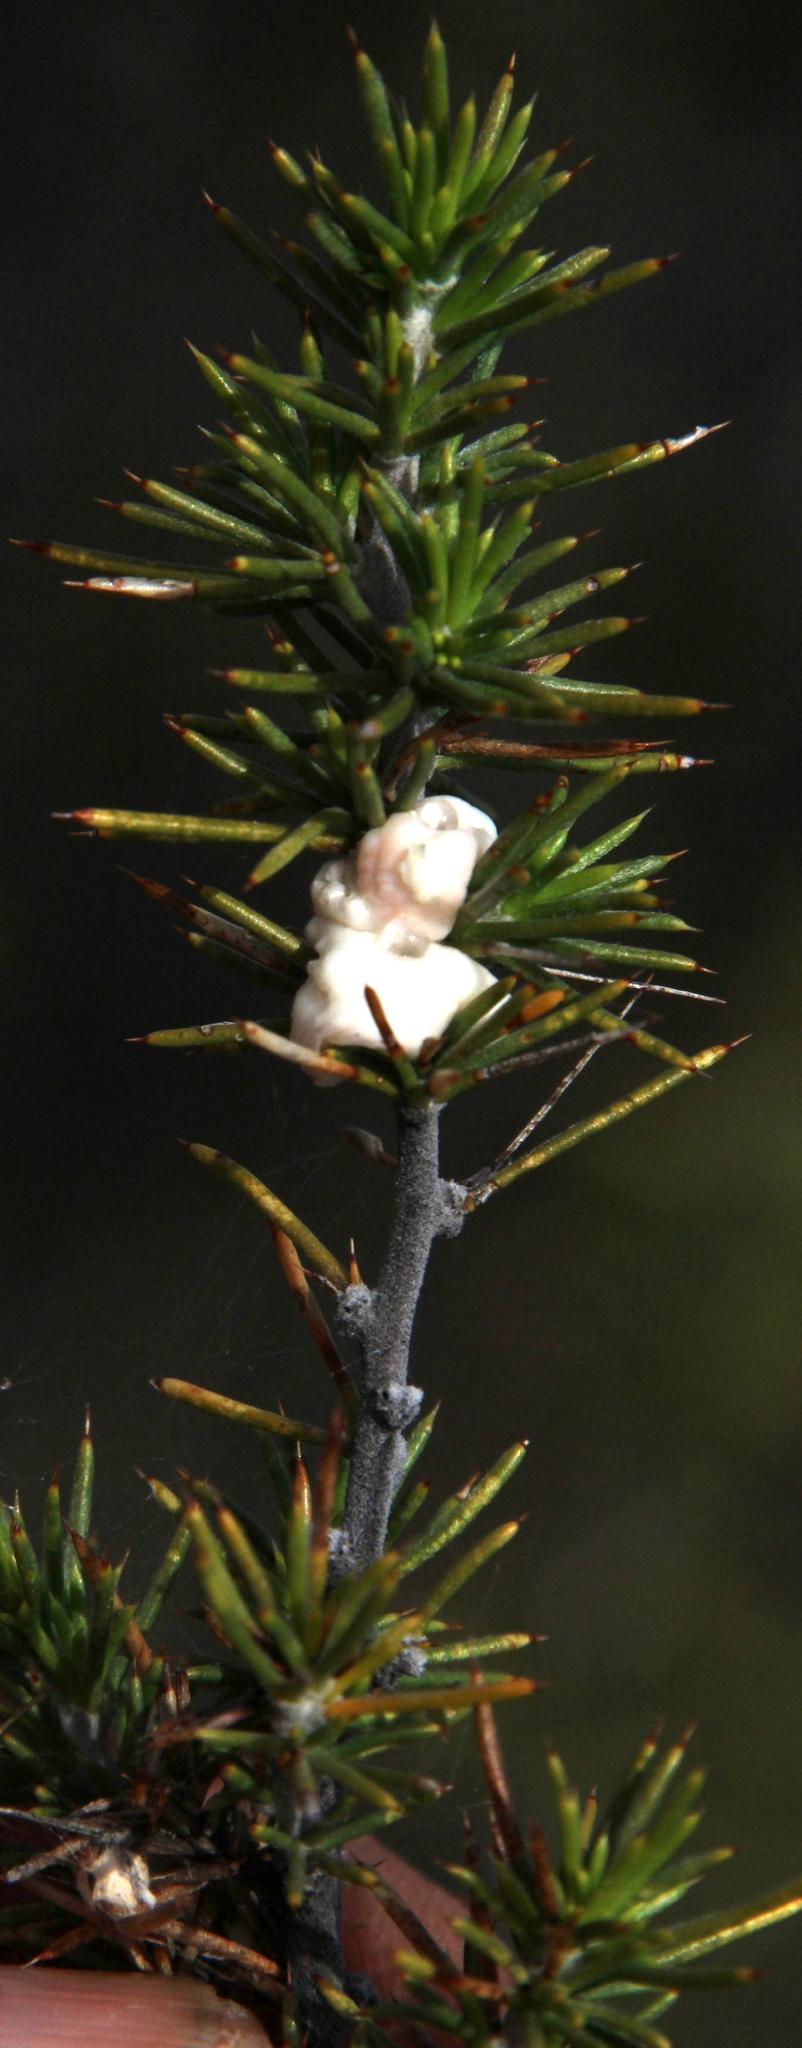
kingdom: Plantae
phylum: Tracheophyta
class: Magnoliopsida
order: Fabales
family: Fabaceae
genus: Aspalathus
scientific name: Aspalathus hirta
